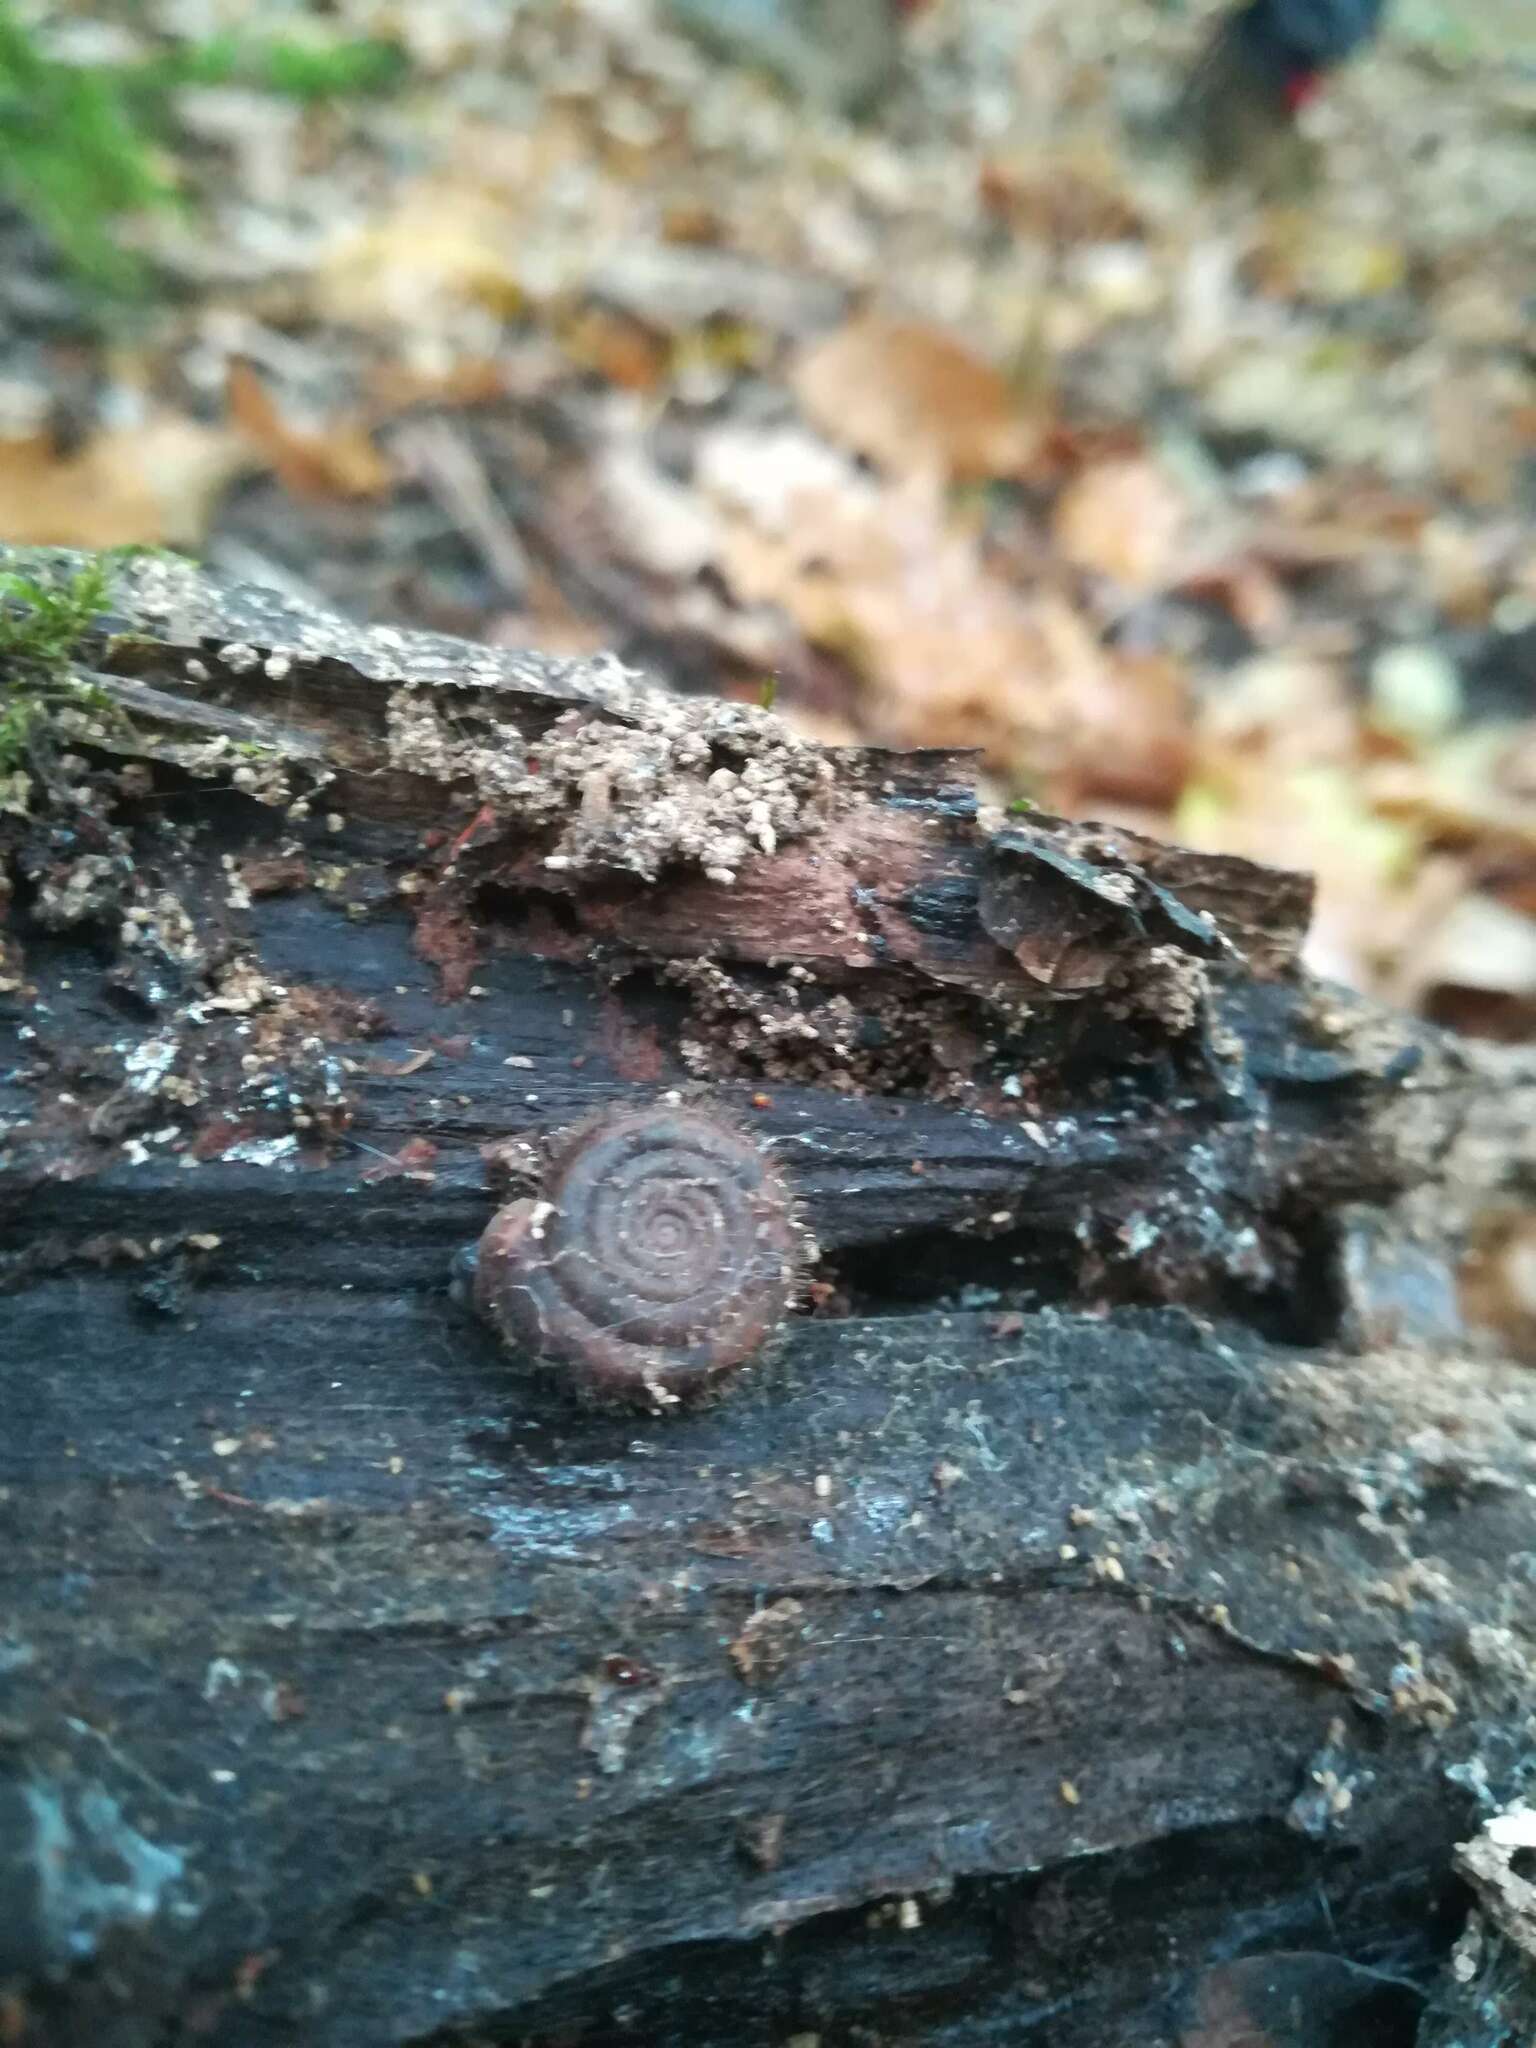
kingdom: Animalia
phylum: Mollusca
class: Gastropoda
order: Stylommatophora
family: Helicodontidae
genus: Helicodonta
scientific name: Helicodonta obvoluta
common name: Cheese snail
